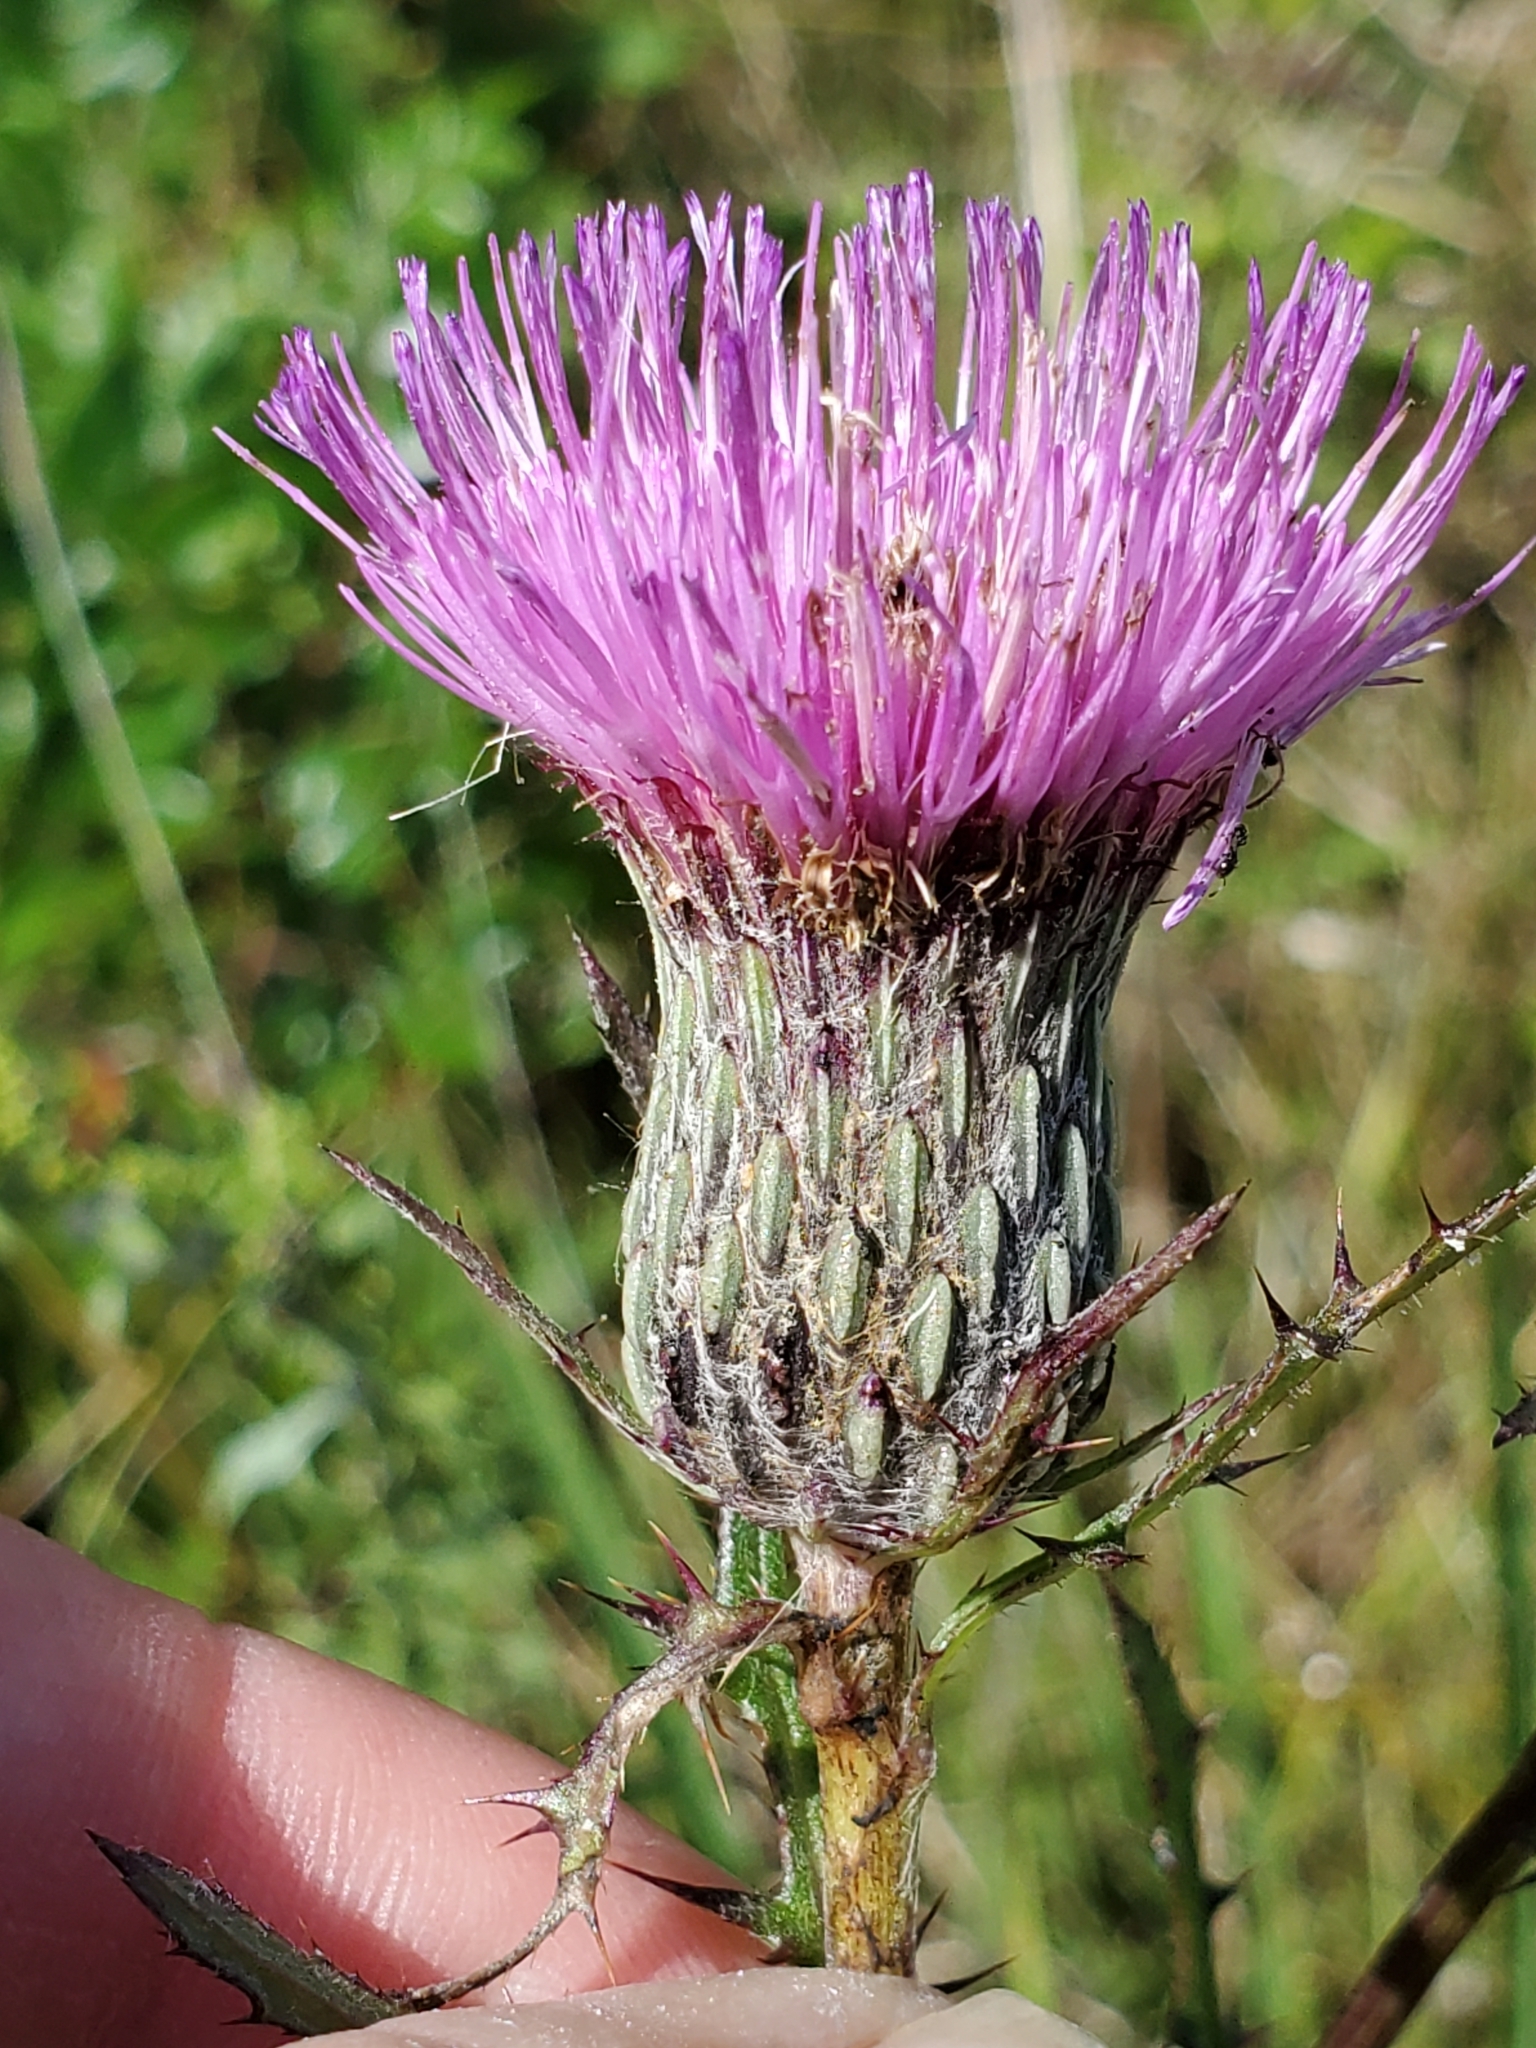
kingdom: Plantae
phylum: Tracheophyta
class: Magnoliopsida
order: Asterales
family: Asteraceae
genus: Cirsium
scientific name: Cirsium muticum
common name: Dunce-nettle
